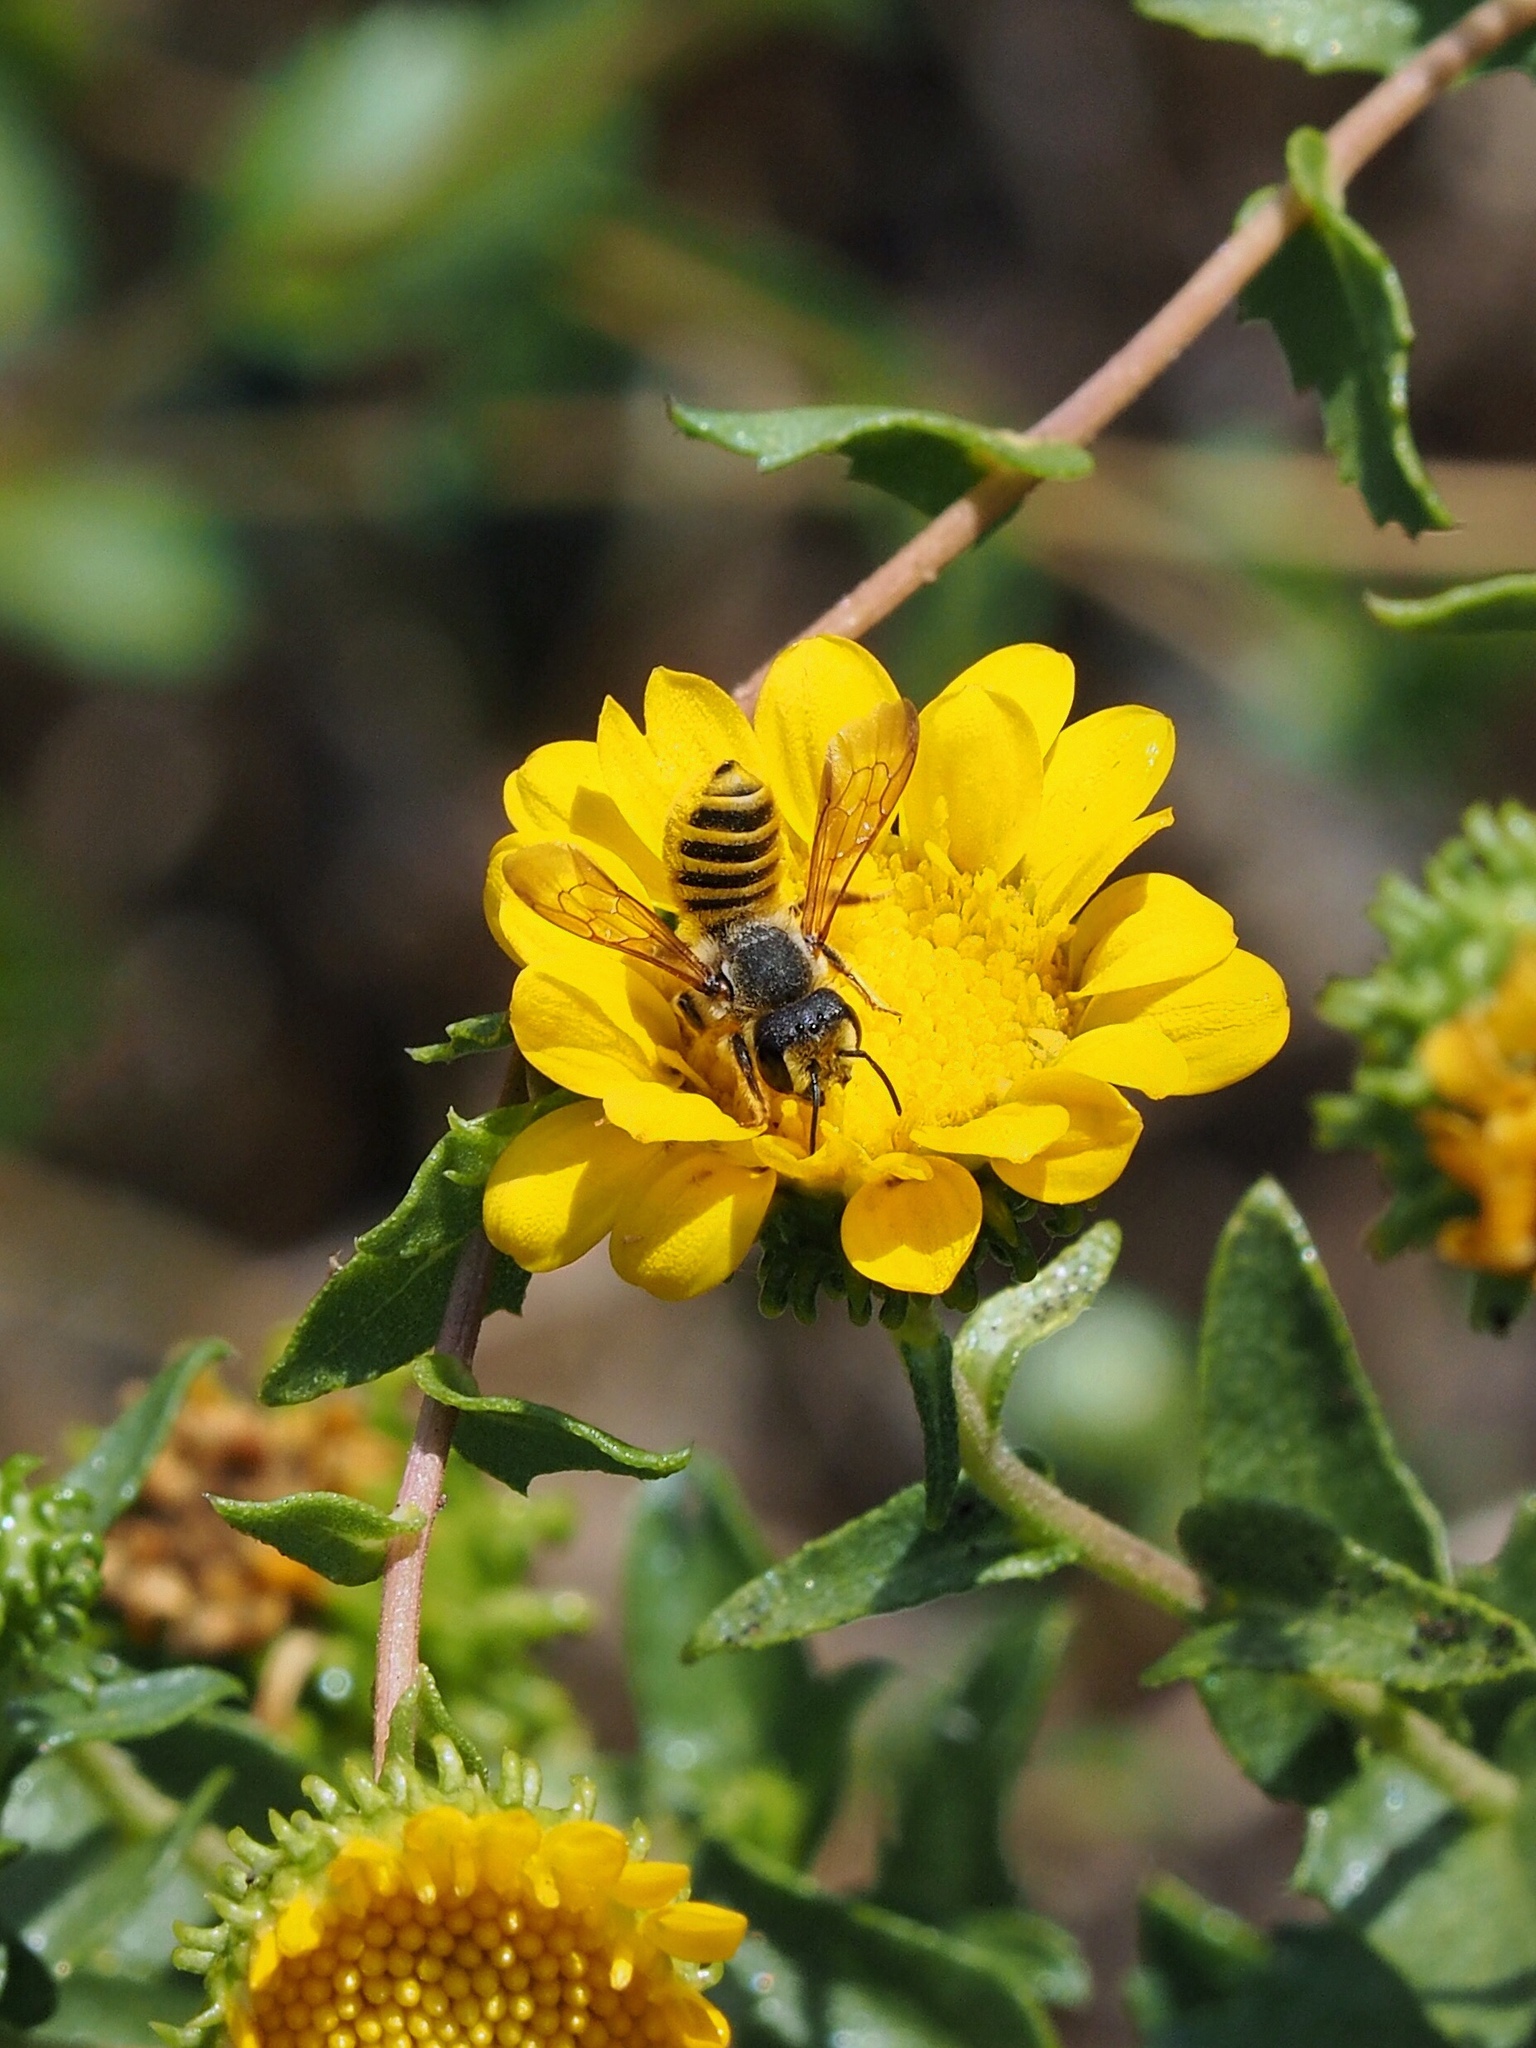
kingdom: Animalia
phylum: Arthropoda
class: Insecta
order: Hymenoptera
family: Megachilidae
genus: Megachile
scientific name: Megachile fidelis
